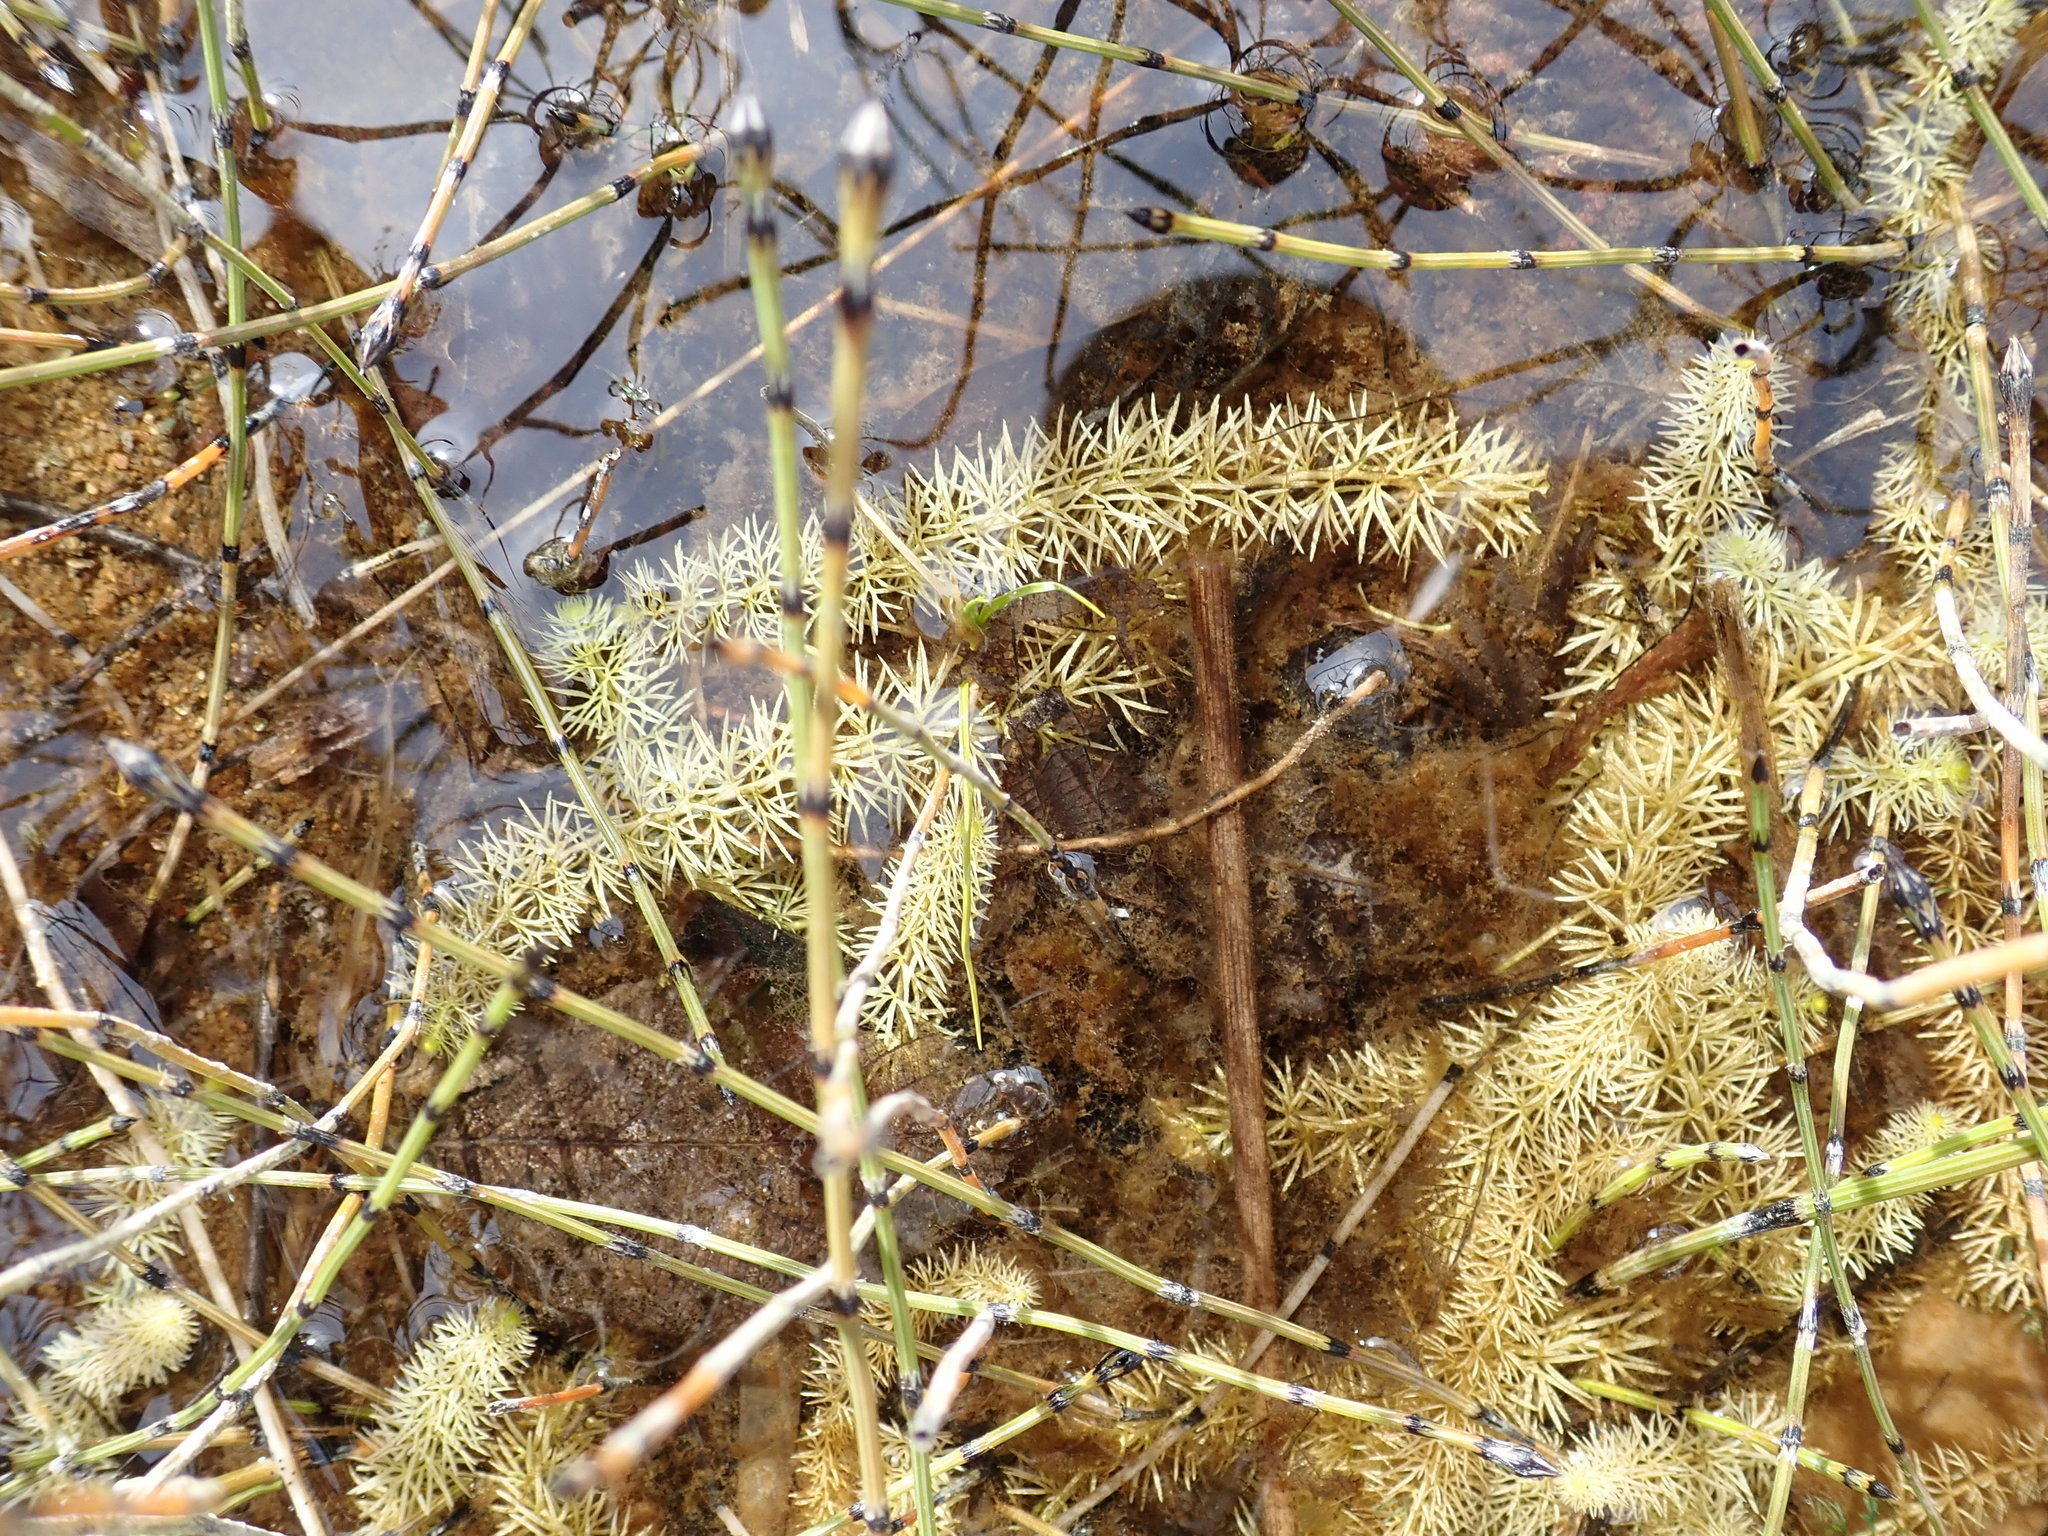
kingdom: Plantae
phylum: Tracheophyta
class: Magnoliopsida
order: Lamiales
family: Lentibulariaceae
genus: Utricularia
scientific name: Utricularia intermedia
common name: Intermediate bladderwort
